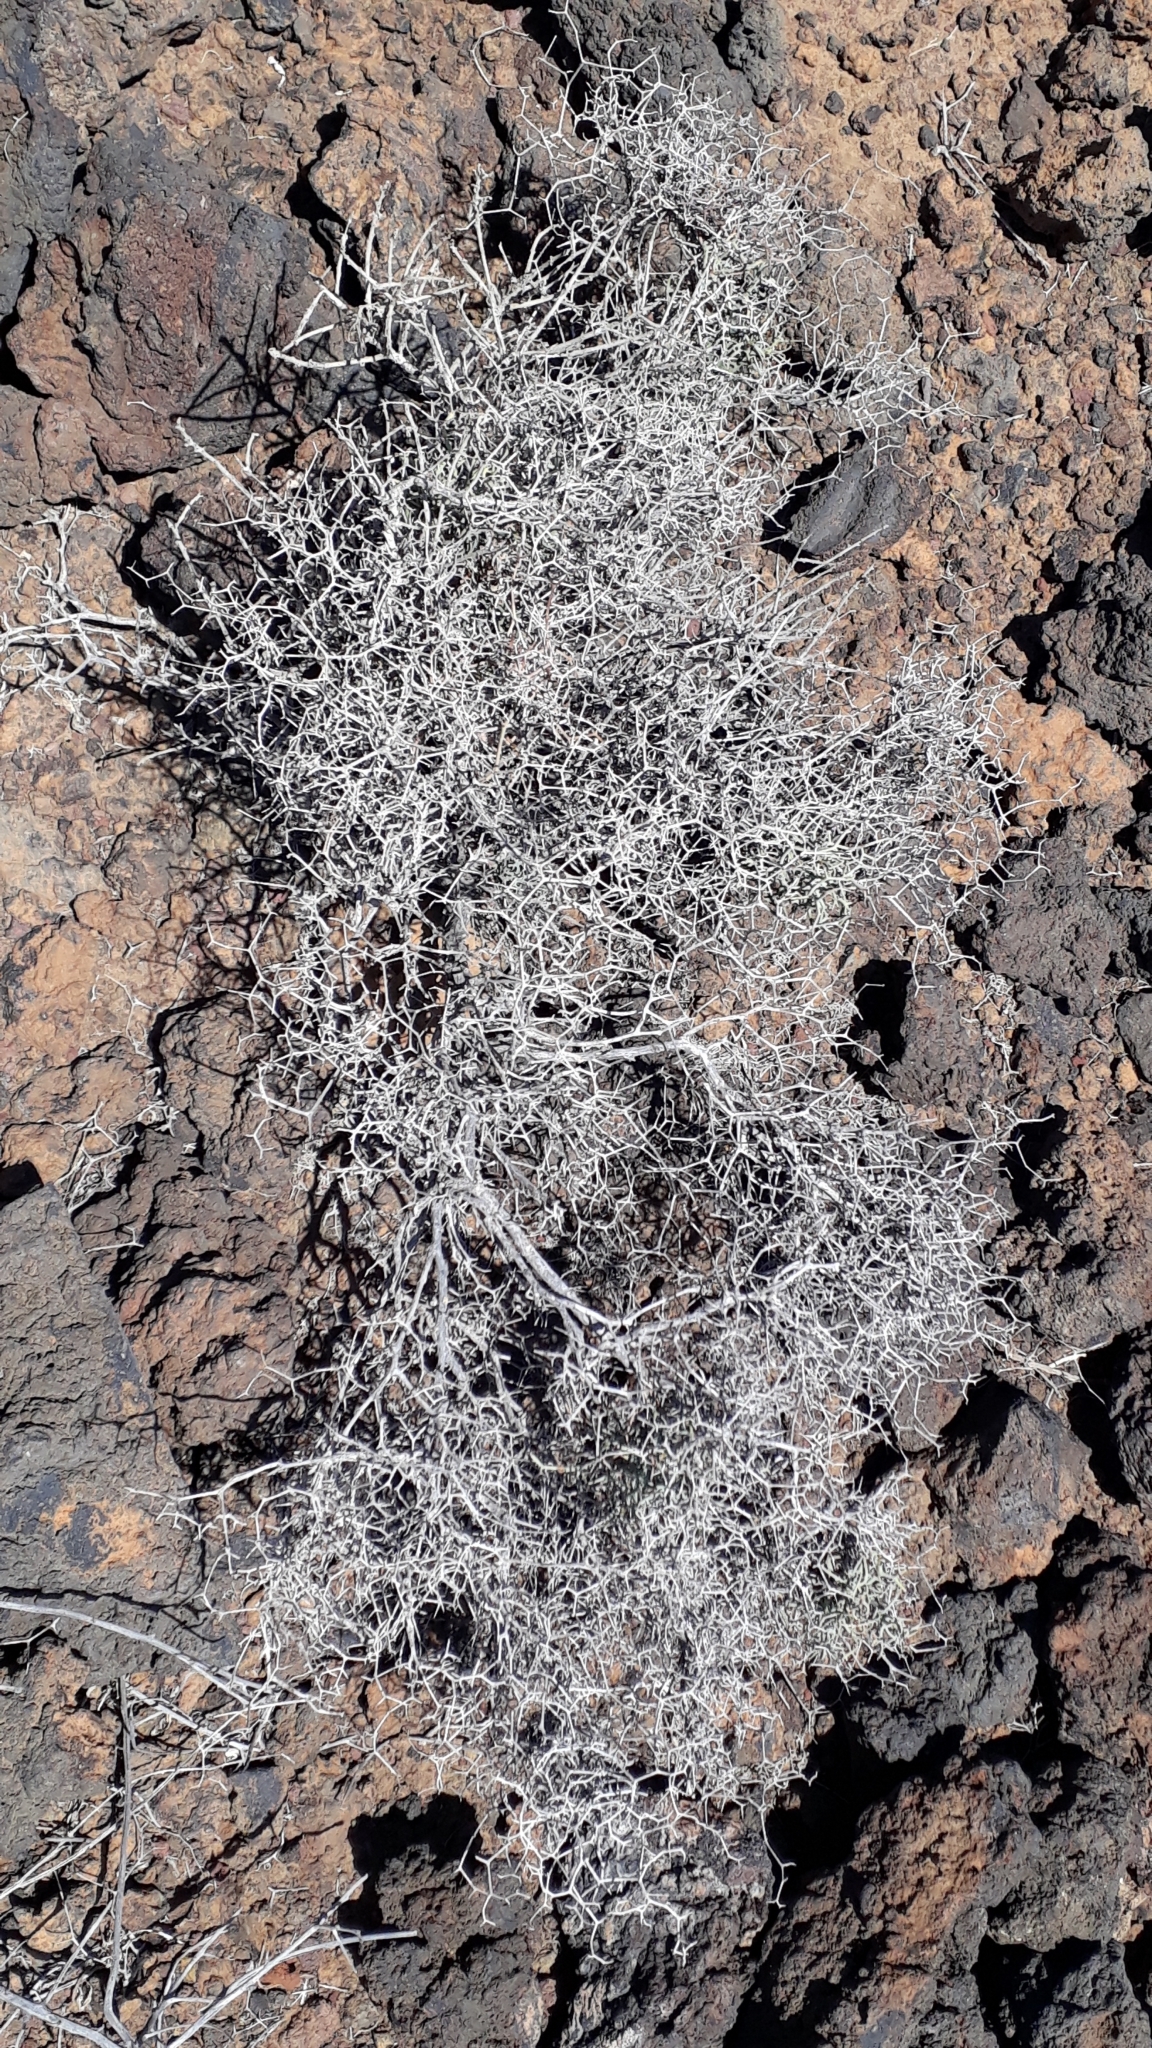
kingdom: Plantae
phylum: Tracheophyta
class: Magnoliopsida
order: Asterales
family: Asteraceae
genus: Launaea
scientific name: Launaea arborescens
